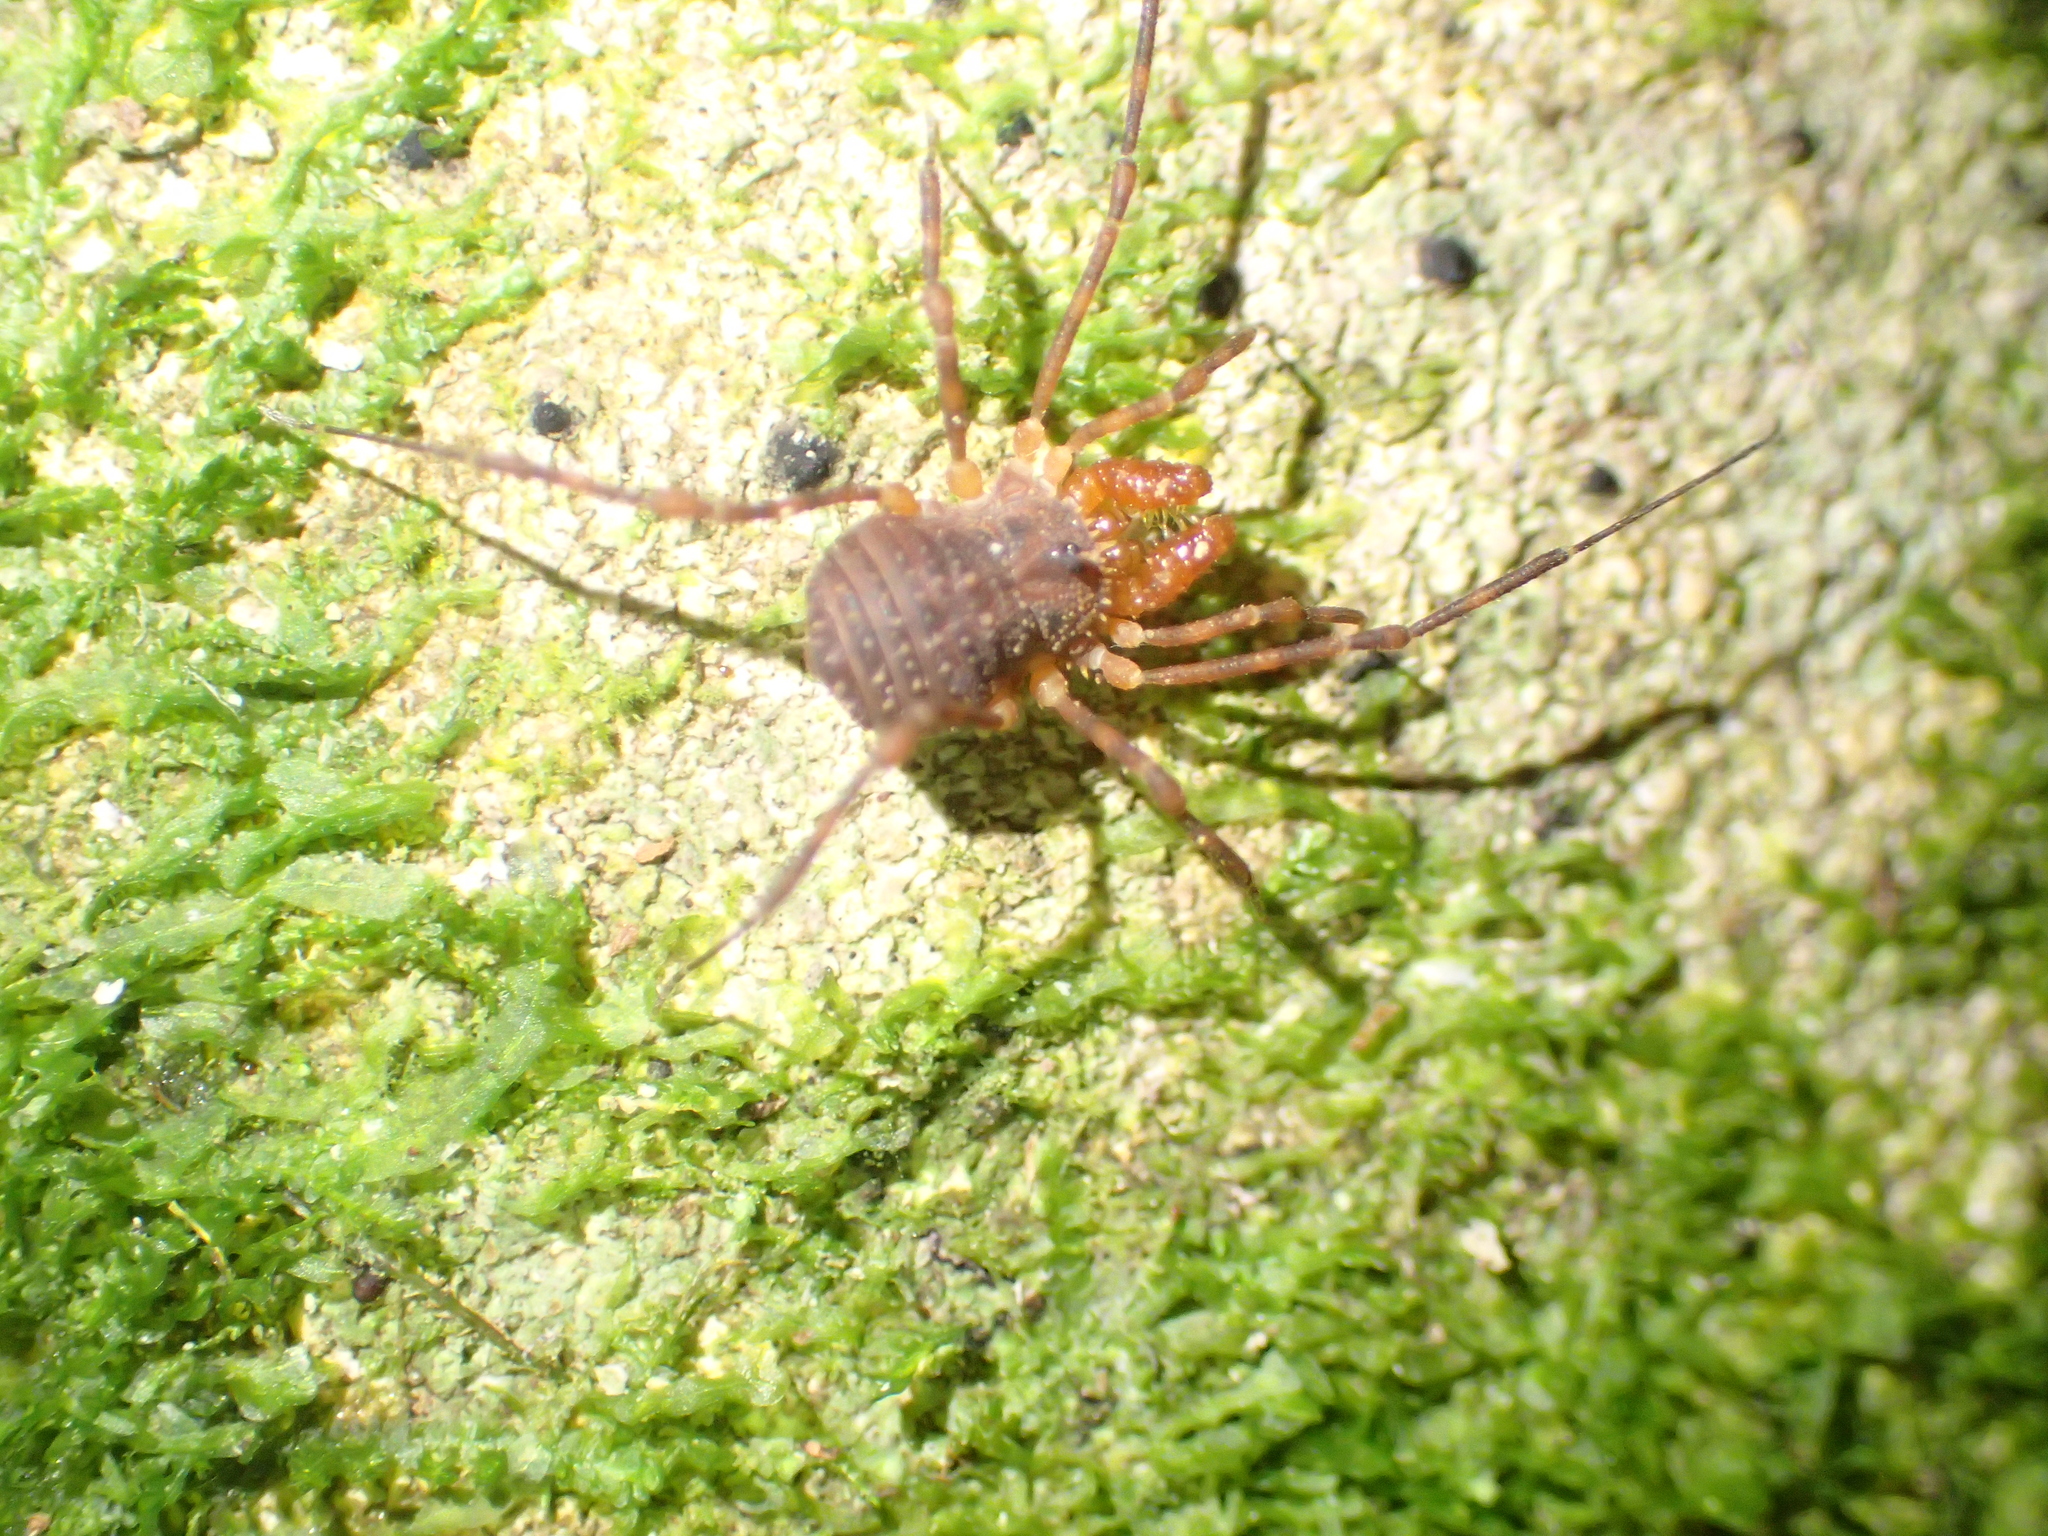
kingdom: Animalia
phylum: Arthropoda
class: Arachnida
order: Opiliones
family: Triaenonychidae
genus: Prasma
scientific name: Prasma tuberculata
